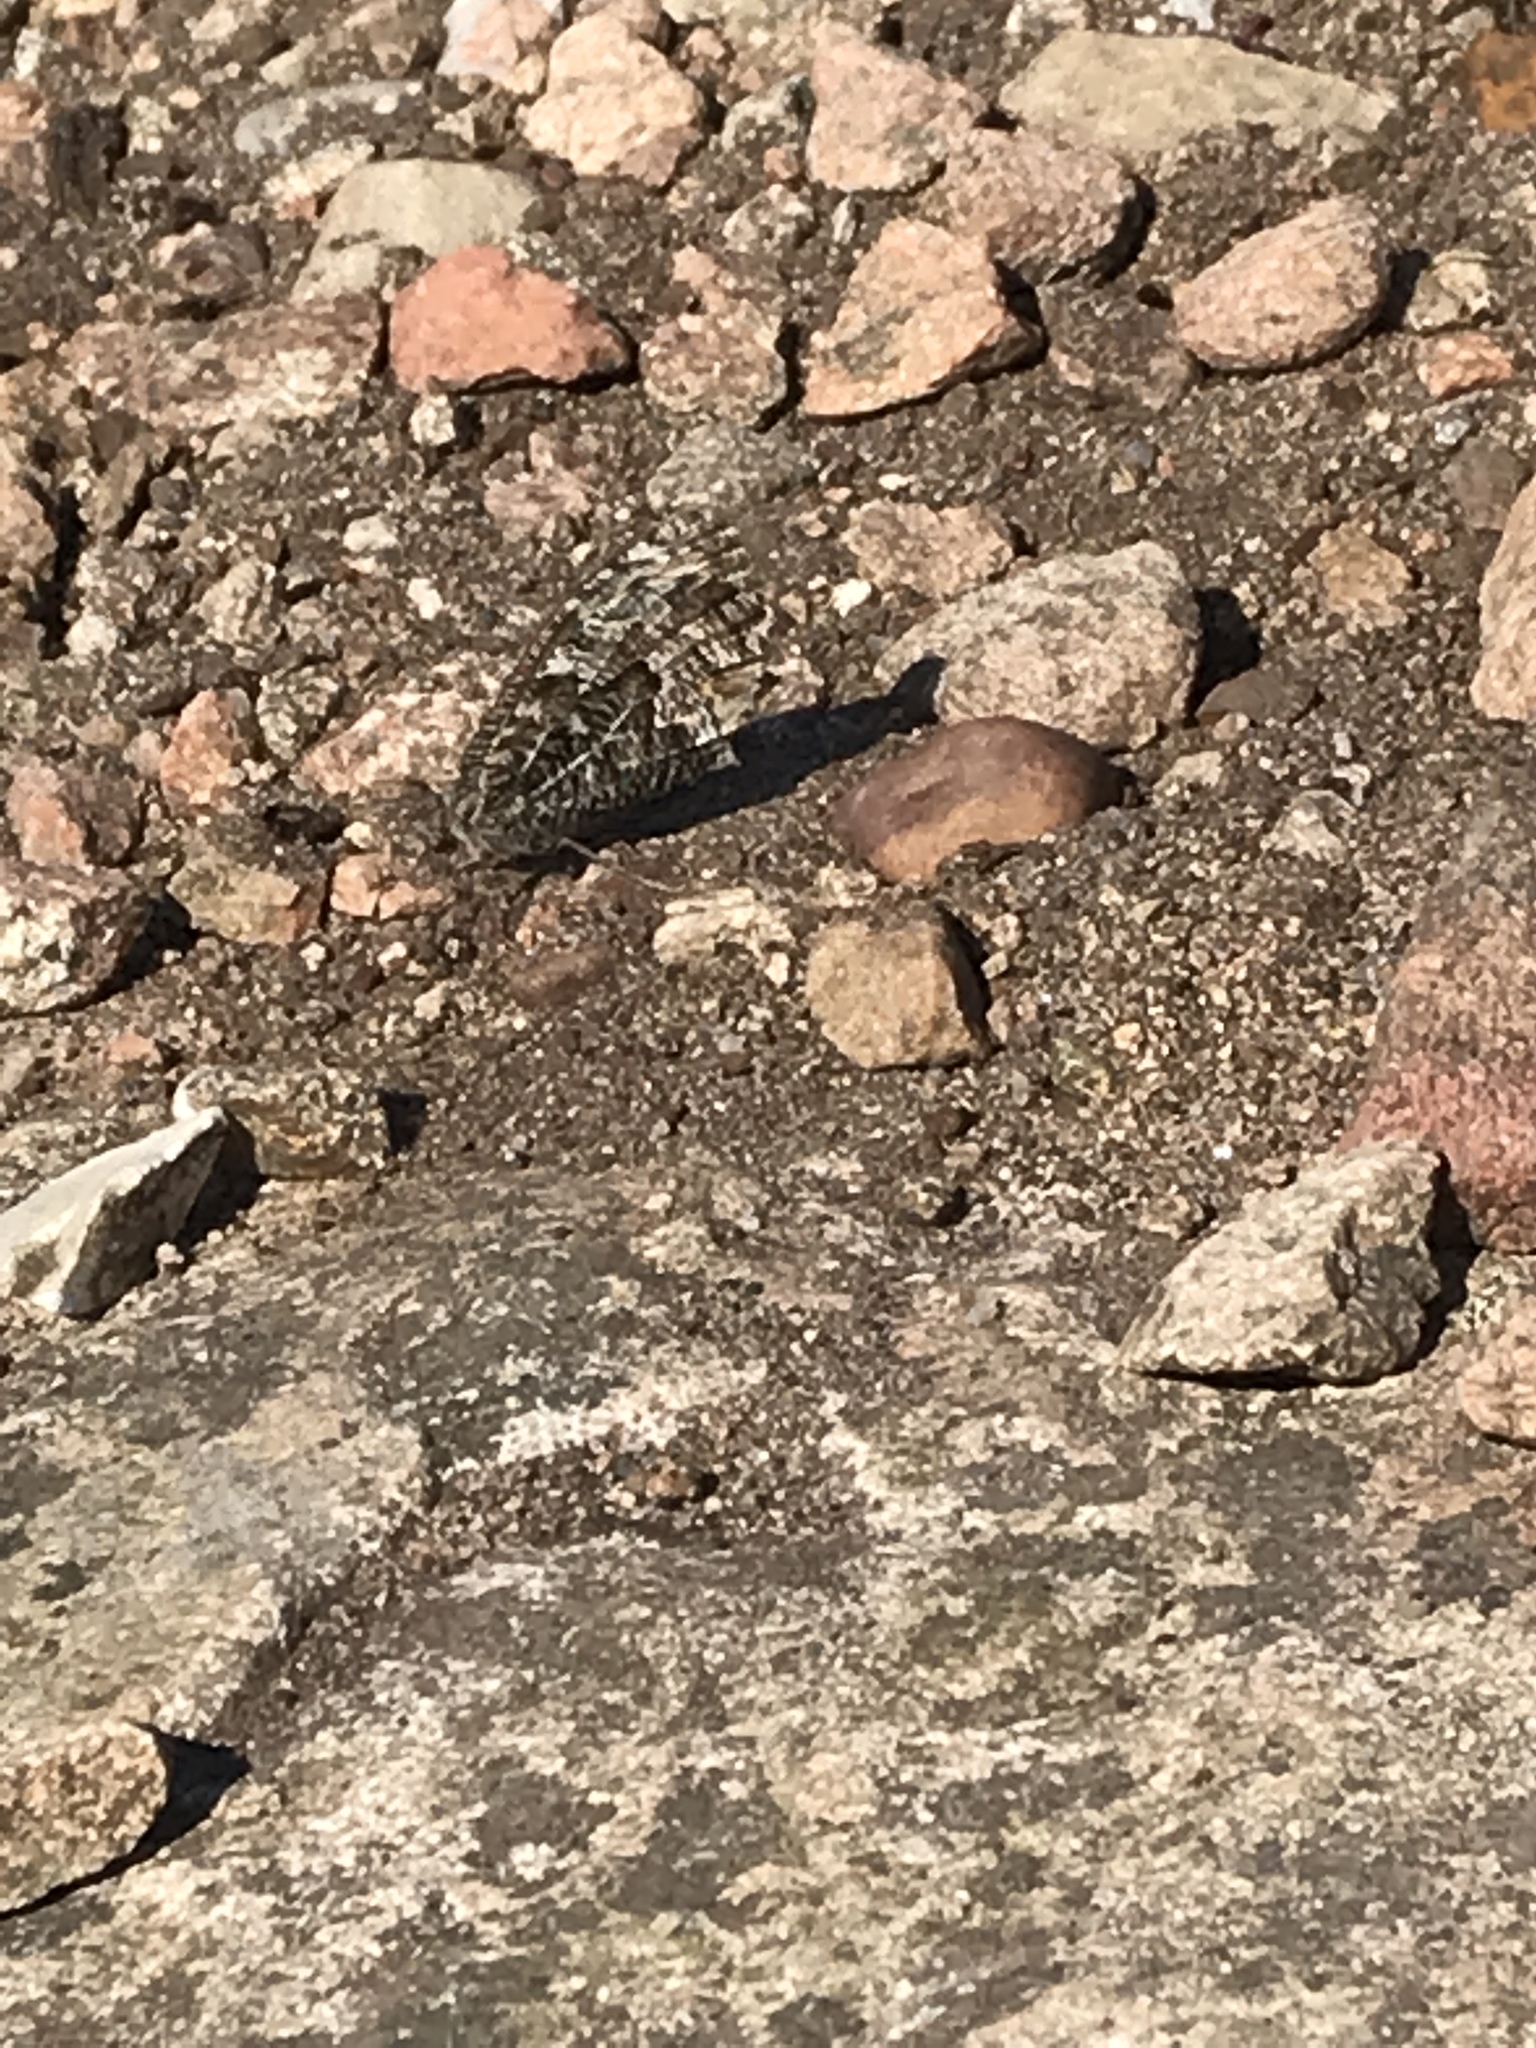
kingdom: Animalia
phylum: Arthropoda
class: Insecta
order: Lepidoptera
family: Nymphalidae
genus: Hipparchia
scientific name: Hipparchia semele
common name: Grayling
